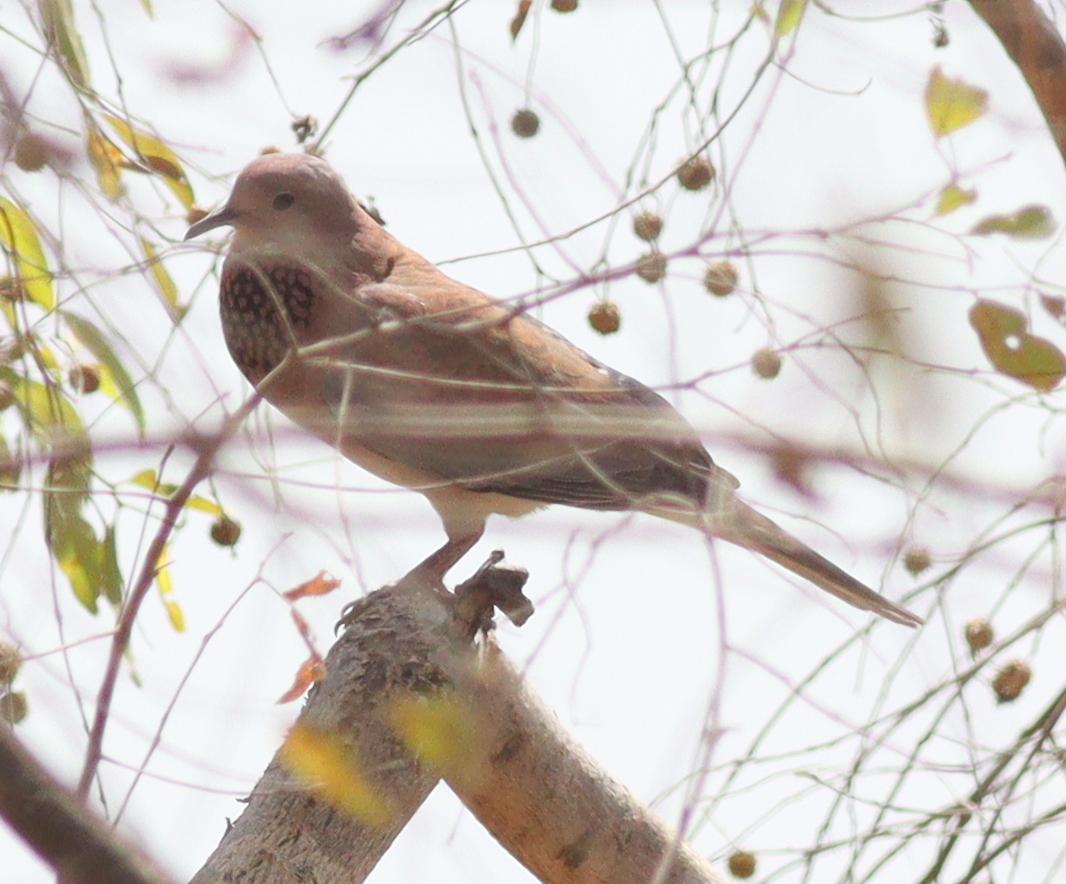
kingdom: Animalia
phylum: Chordata
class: Aves
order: Columbiformes
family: Columbidae
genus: Spilopelia
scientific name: Spilopelia senegalensis
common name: Laughing dove
